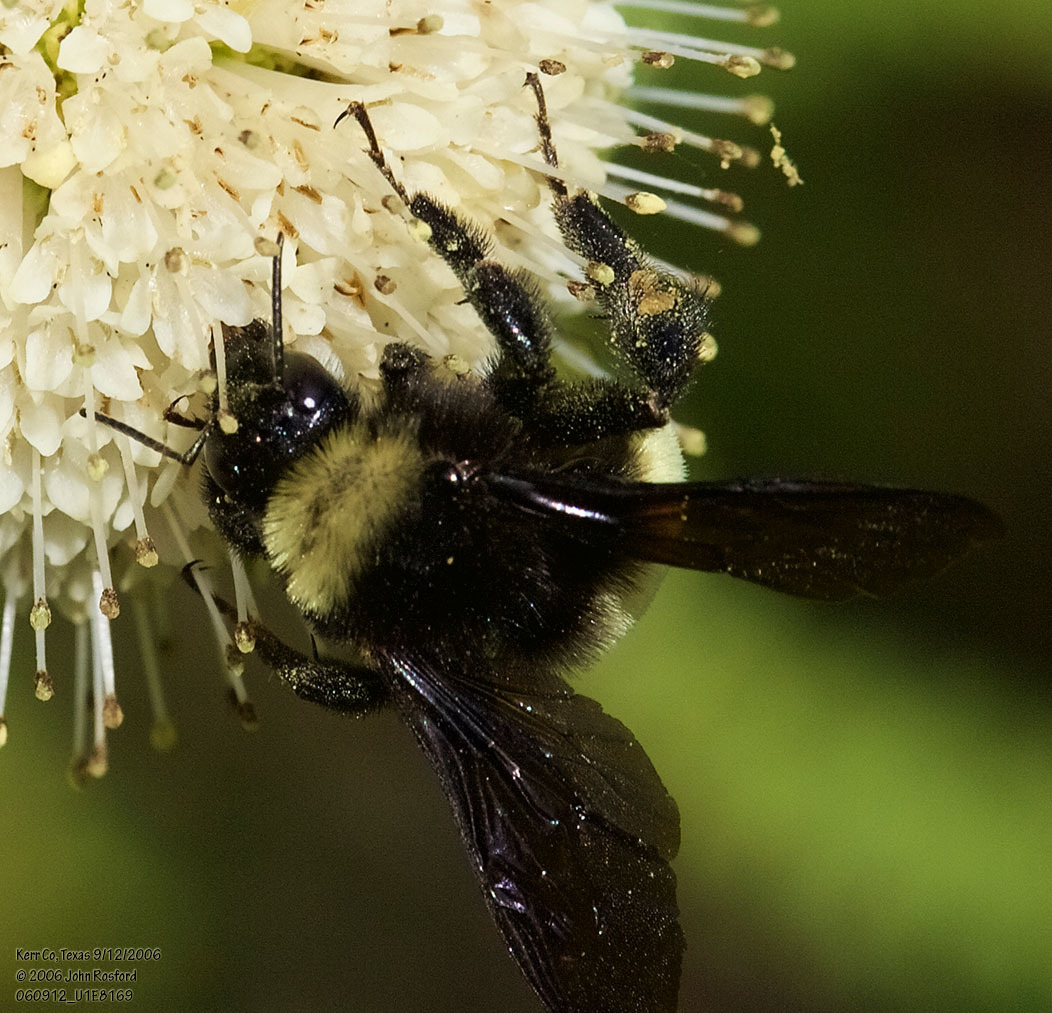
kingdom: Animalia
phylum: Arthropoda
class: Insecta
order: Hymenoptera
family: Apidae
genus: Bombus
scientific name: Bombus pensylvanicus
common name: Bumble bee
